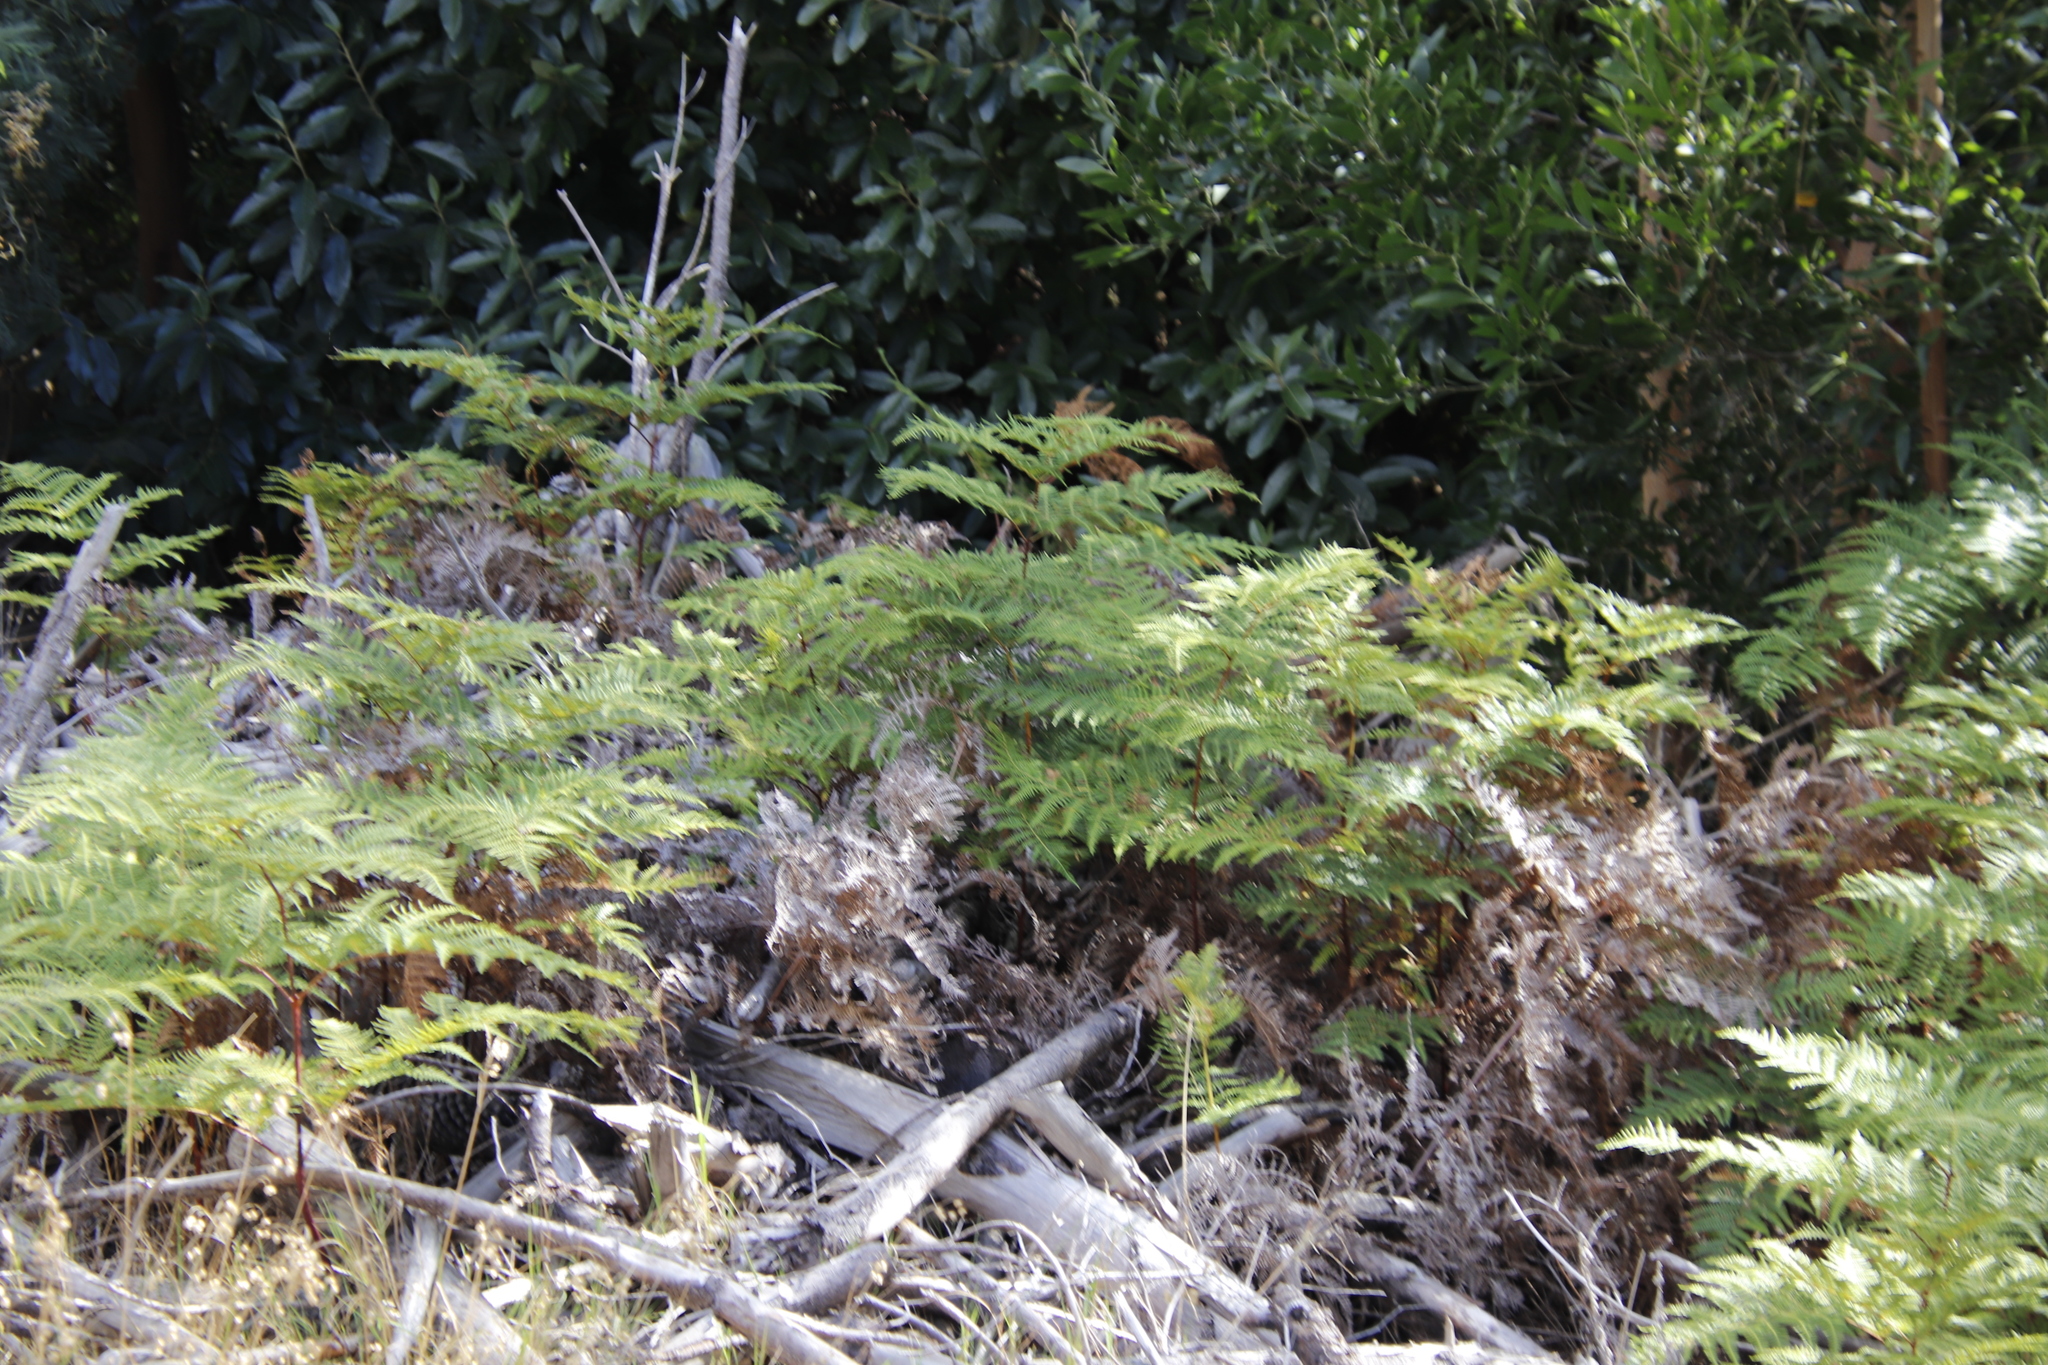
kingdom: Plantae
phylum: Tracheophyta
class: Polypodiopsida
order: Polypodiales
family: Dennstaedtiaceae
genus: Pteridium
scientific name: Pteridium aquilinum
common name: Bracken
